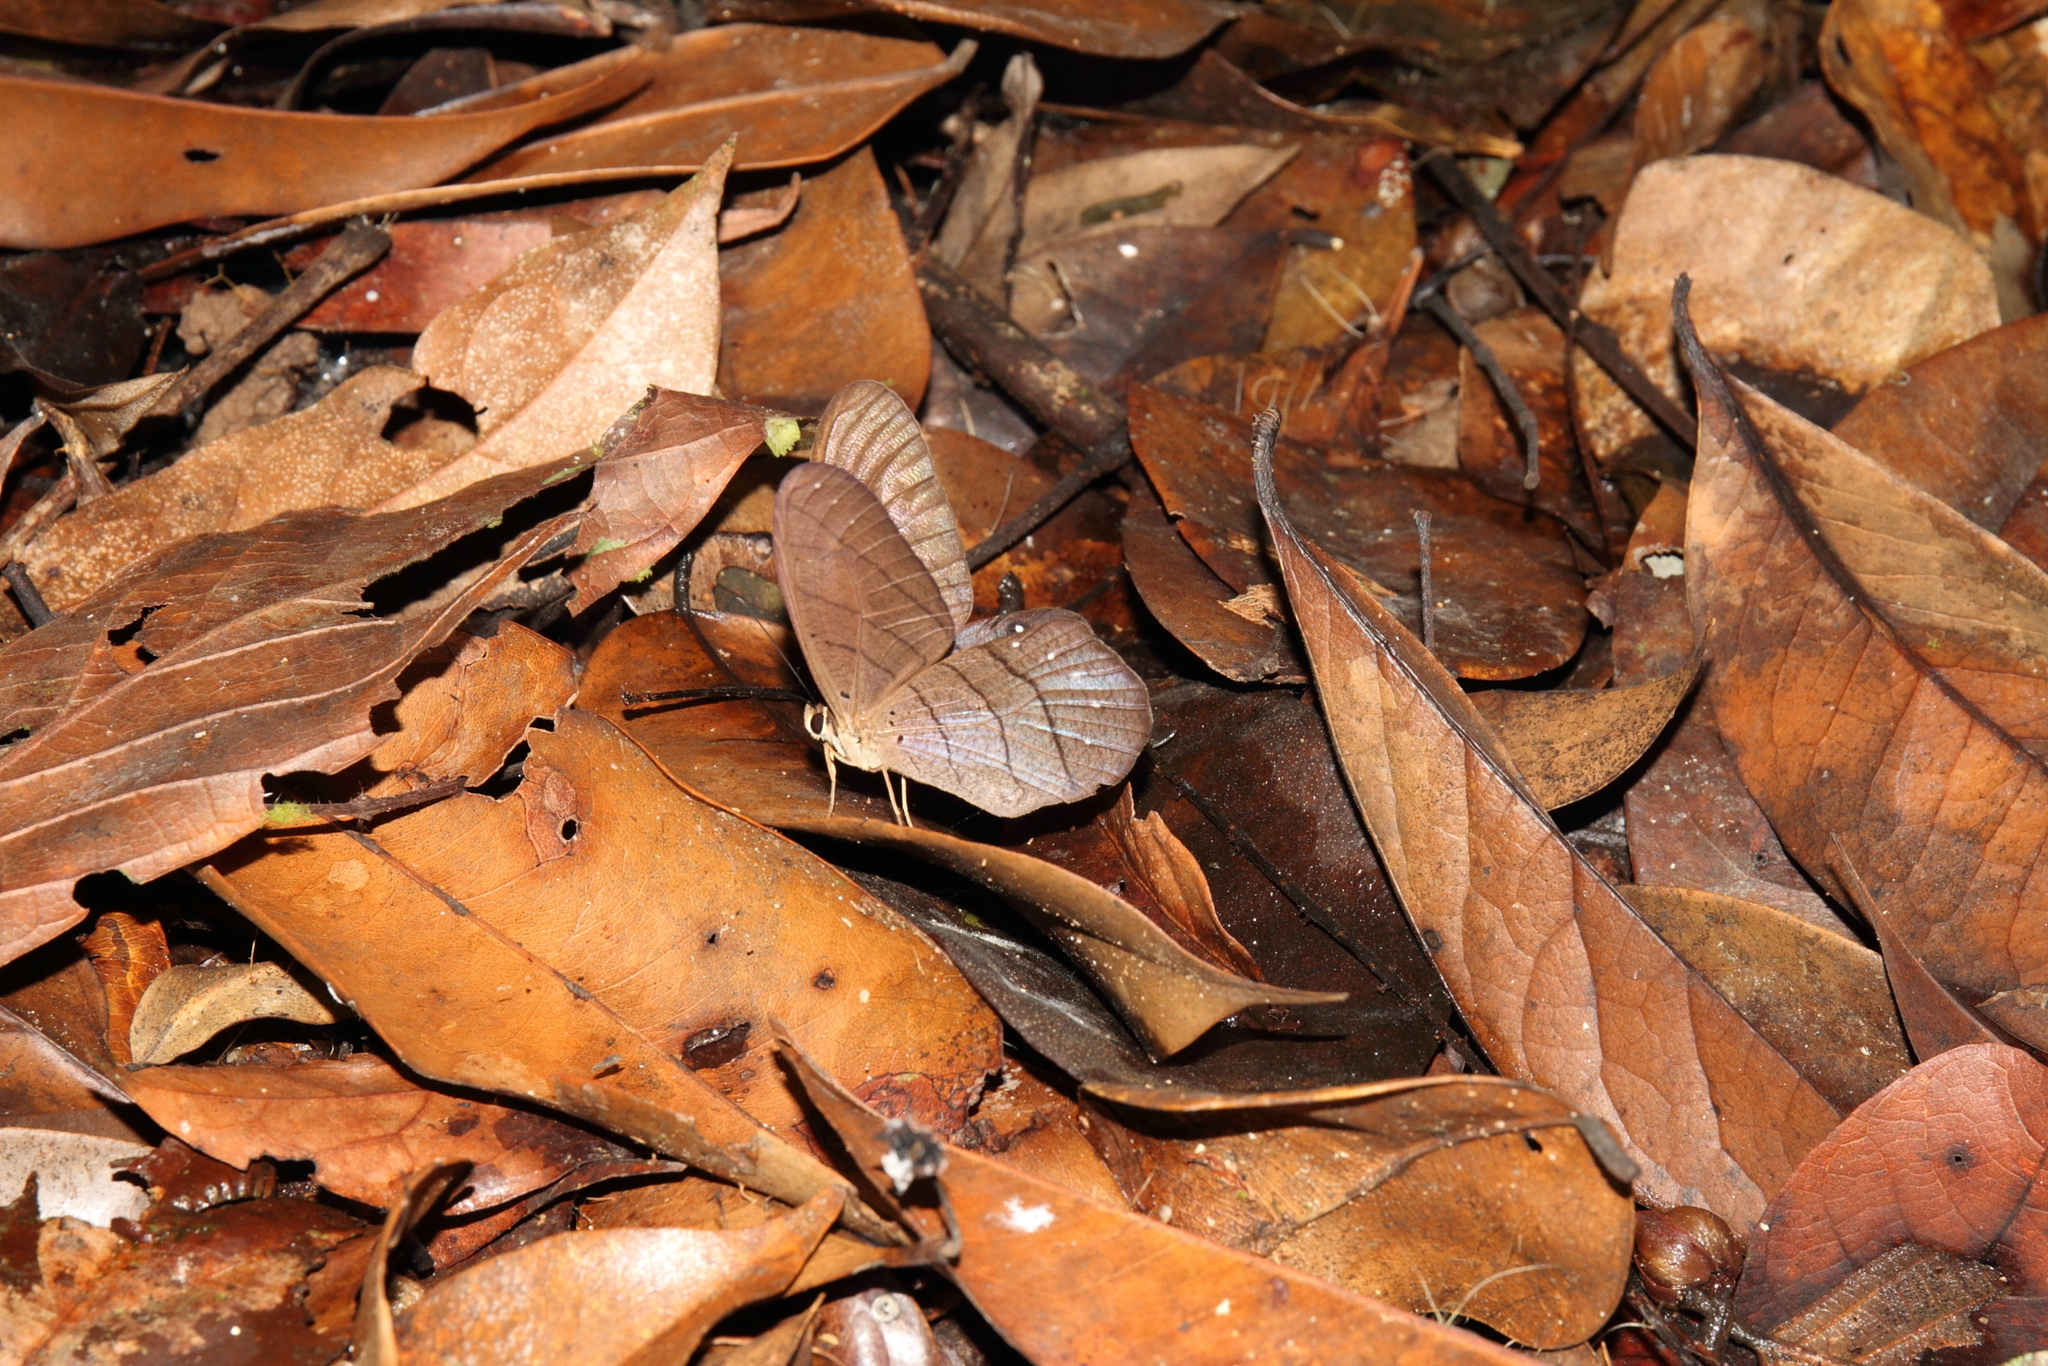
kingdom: Animalia
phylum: Arthropoda
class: Insecta
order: Lepidoptera
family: Nymphalidae
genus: Pierella
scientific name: Pierella rhea
